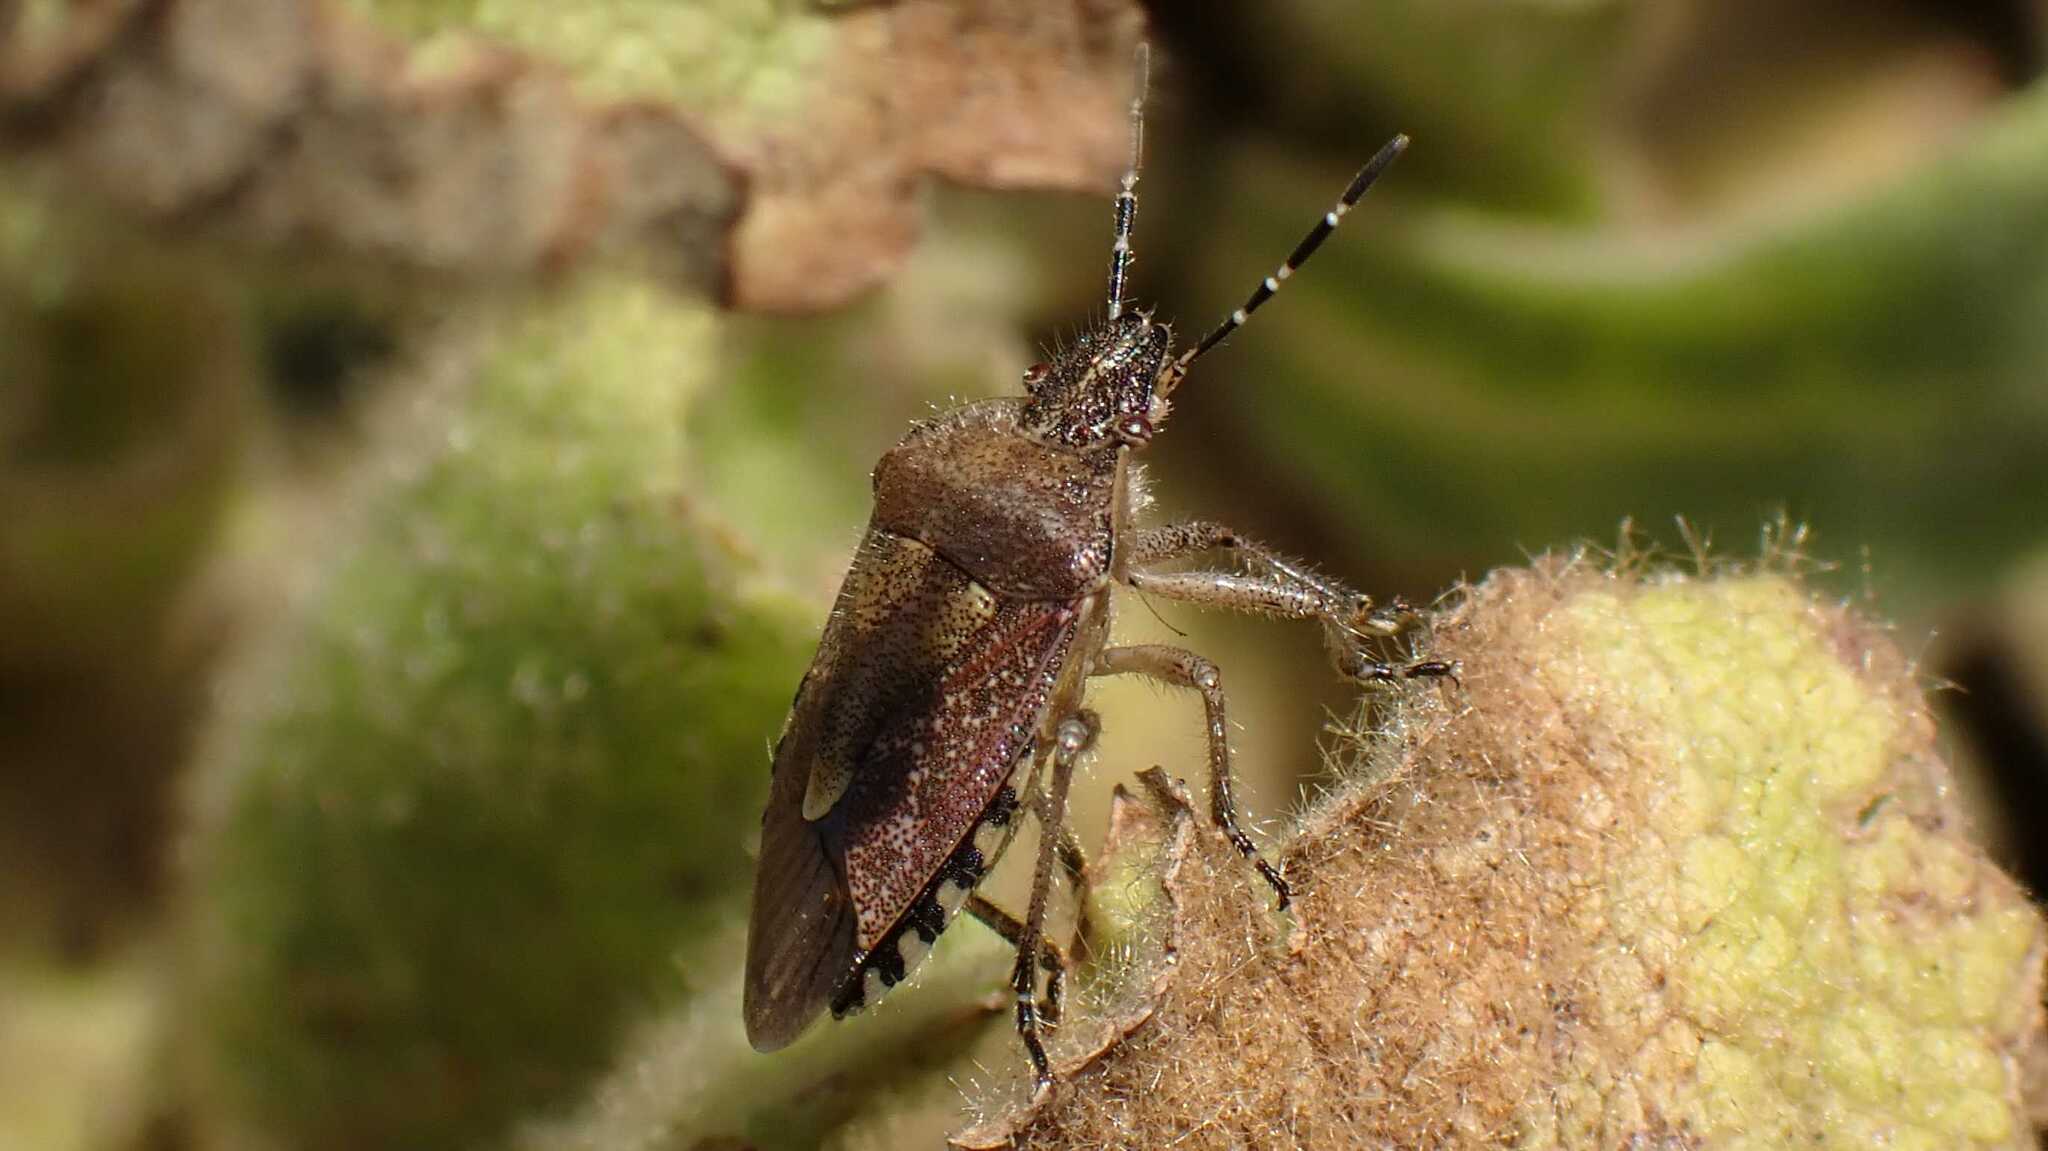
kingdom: Animalia
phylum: Arthropoda
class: Insecta
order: Hemiptera
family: Pentatomidae
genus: Dolycoris
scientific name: Dolycoris baccarum
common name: Sloe bug
